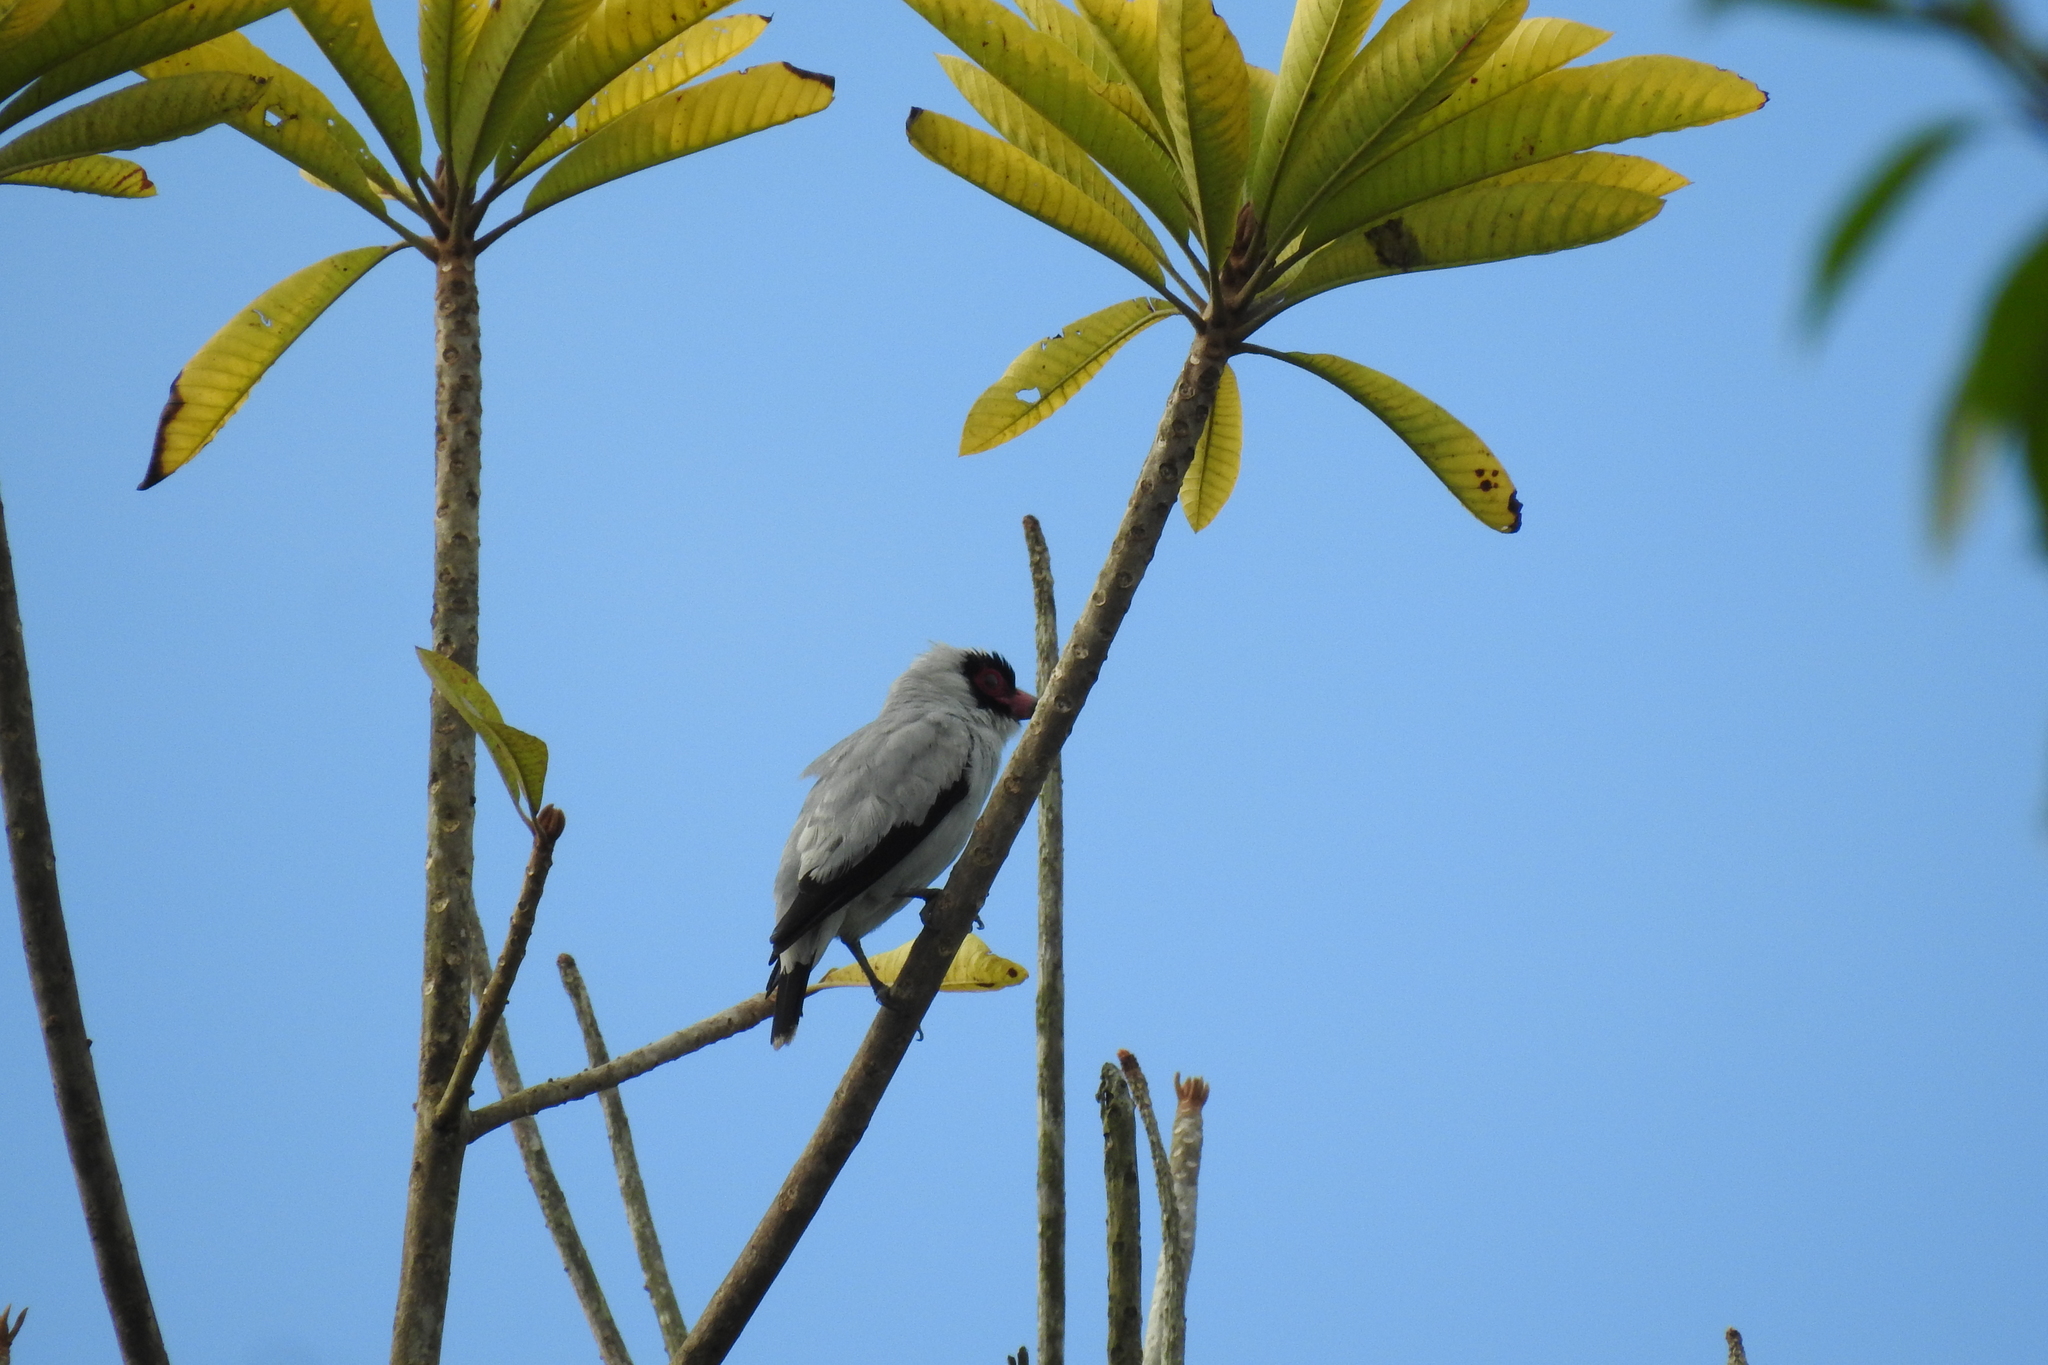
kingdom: Animalia
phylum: Chordata
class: Aves
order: Passeriformes
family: Cotingidae
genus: Tityra
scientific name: Tityra semifasciata
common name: Masked tityra
